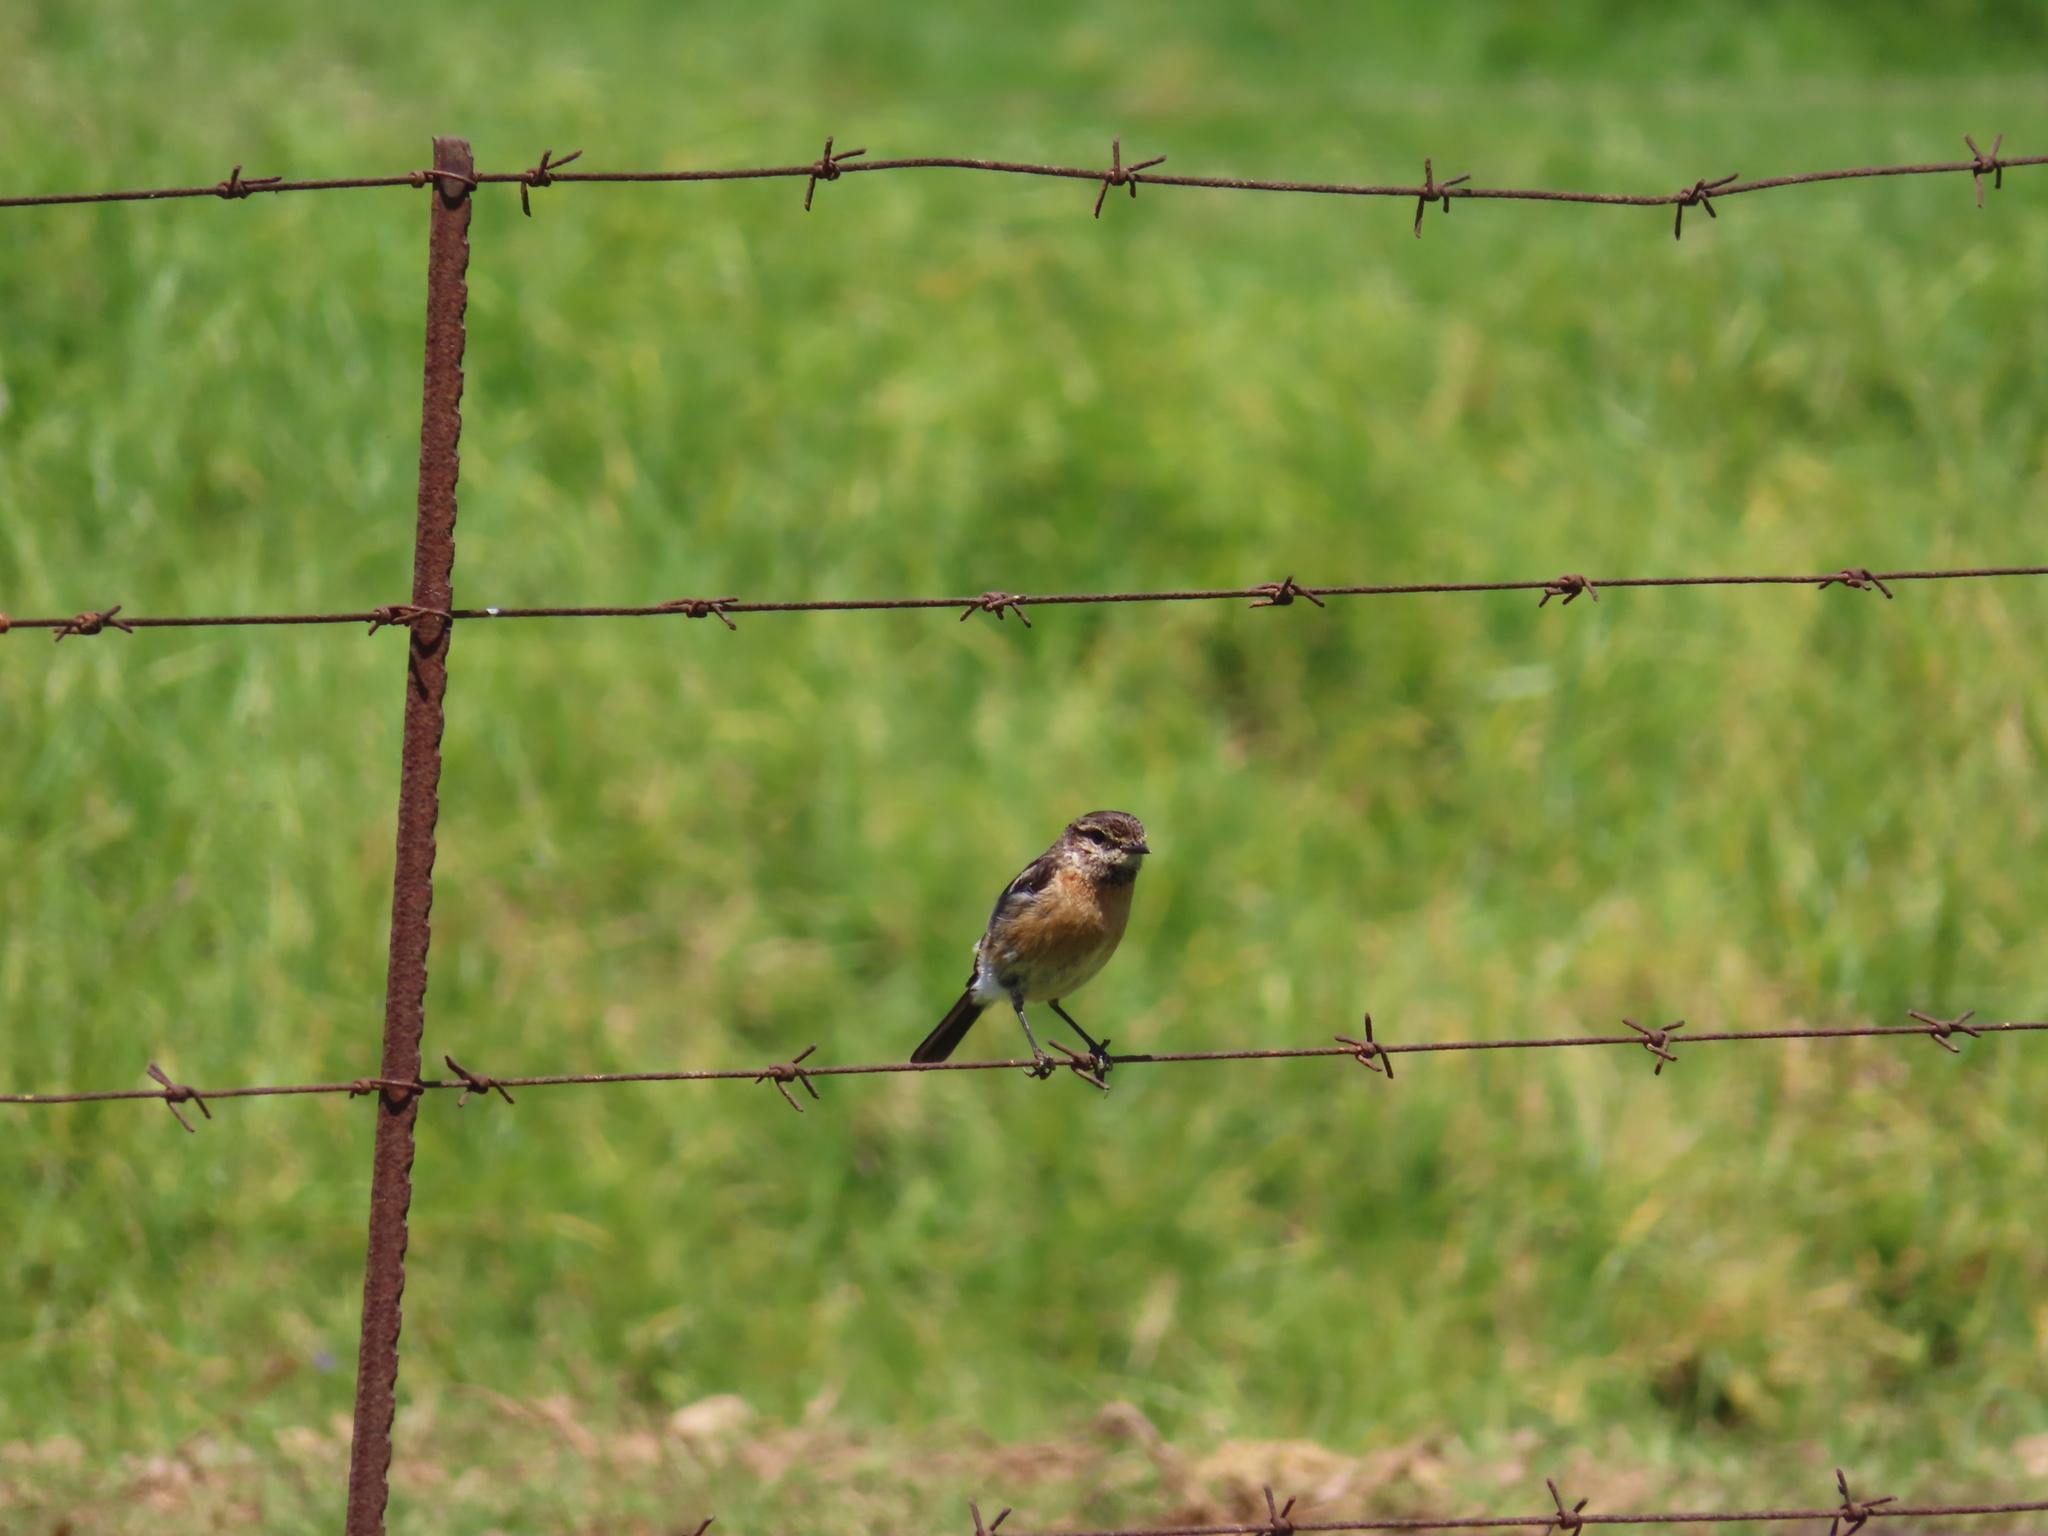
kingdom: Animalia
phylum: Chordata
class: Aves
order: Passeriformes
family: Muscicapidae
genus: Saxicola
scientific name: Saxicola torquatus
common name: African stonechat
